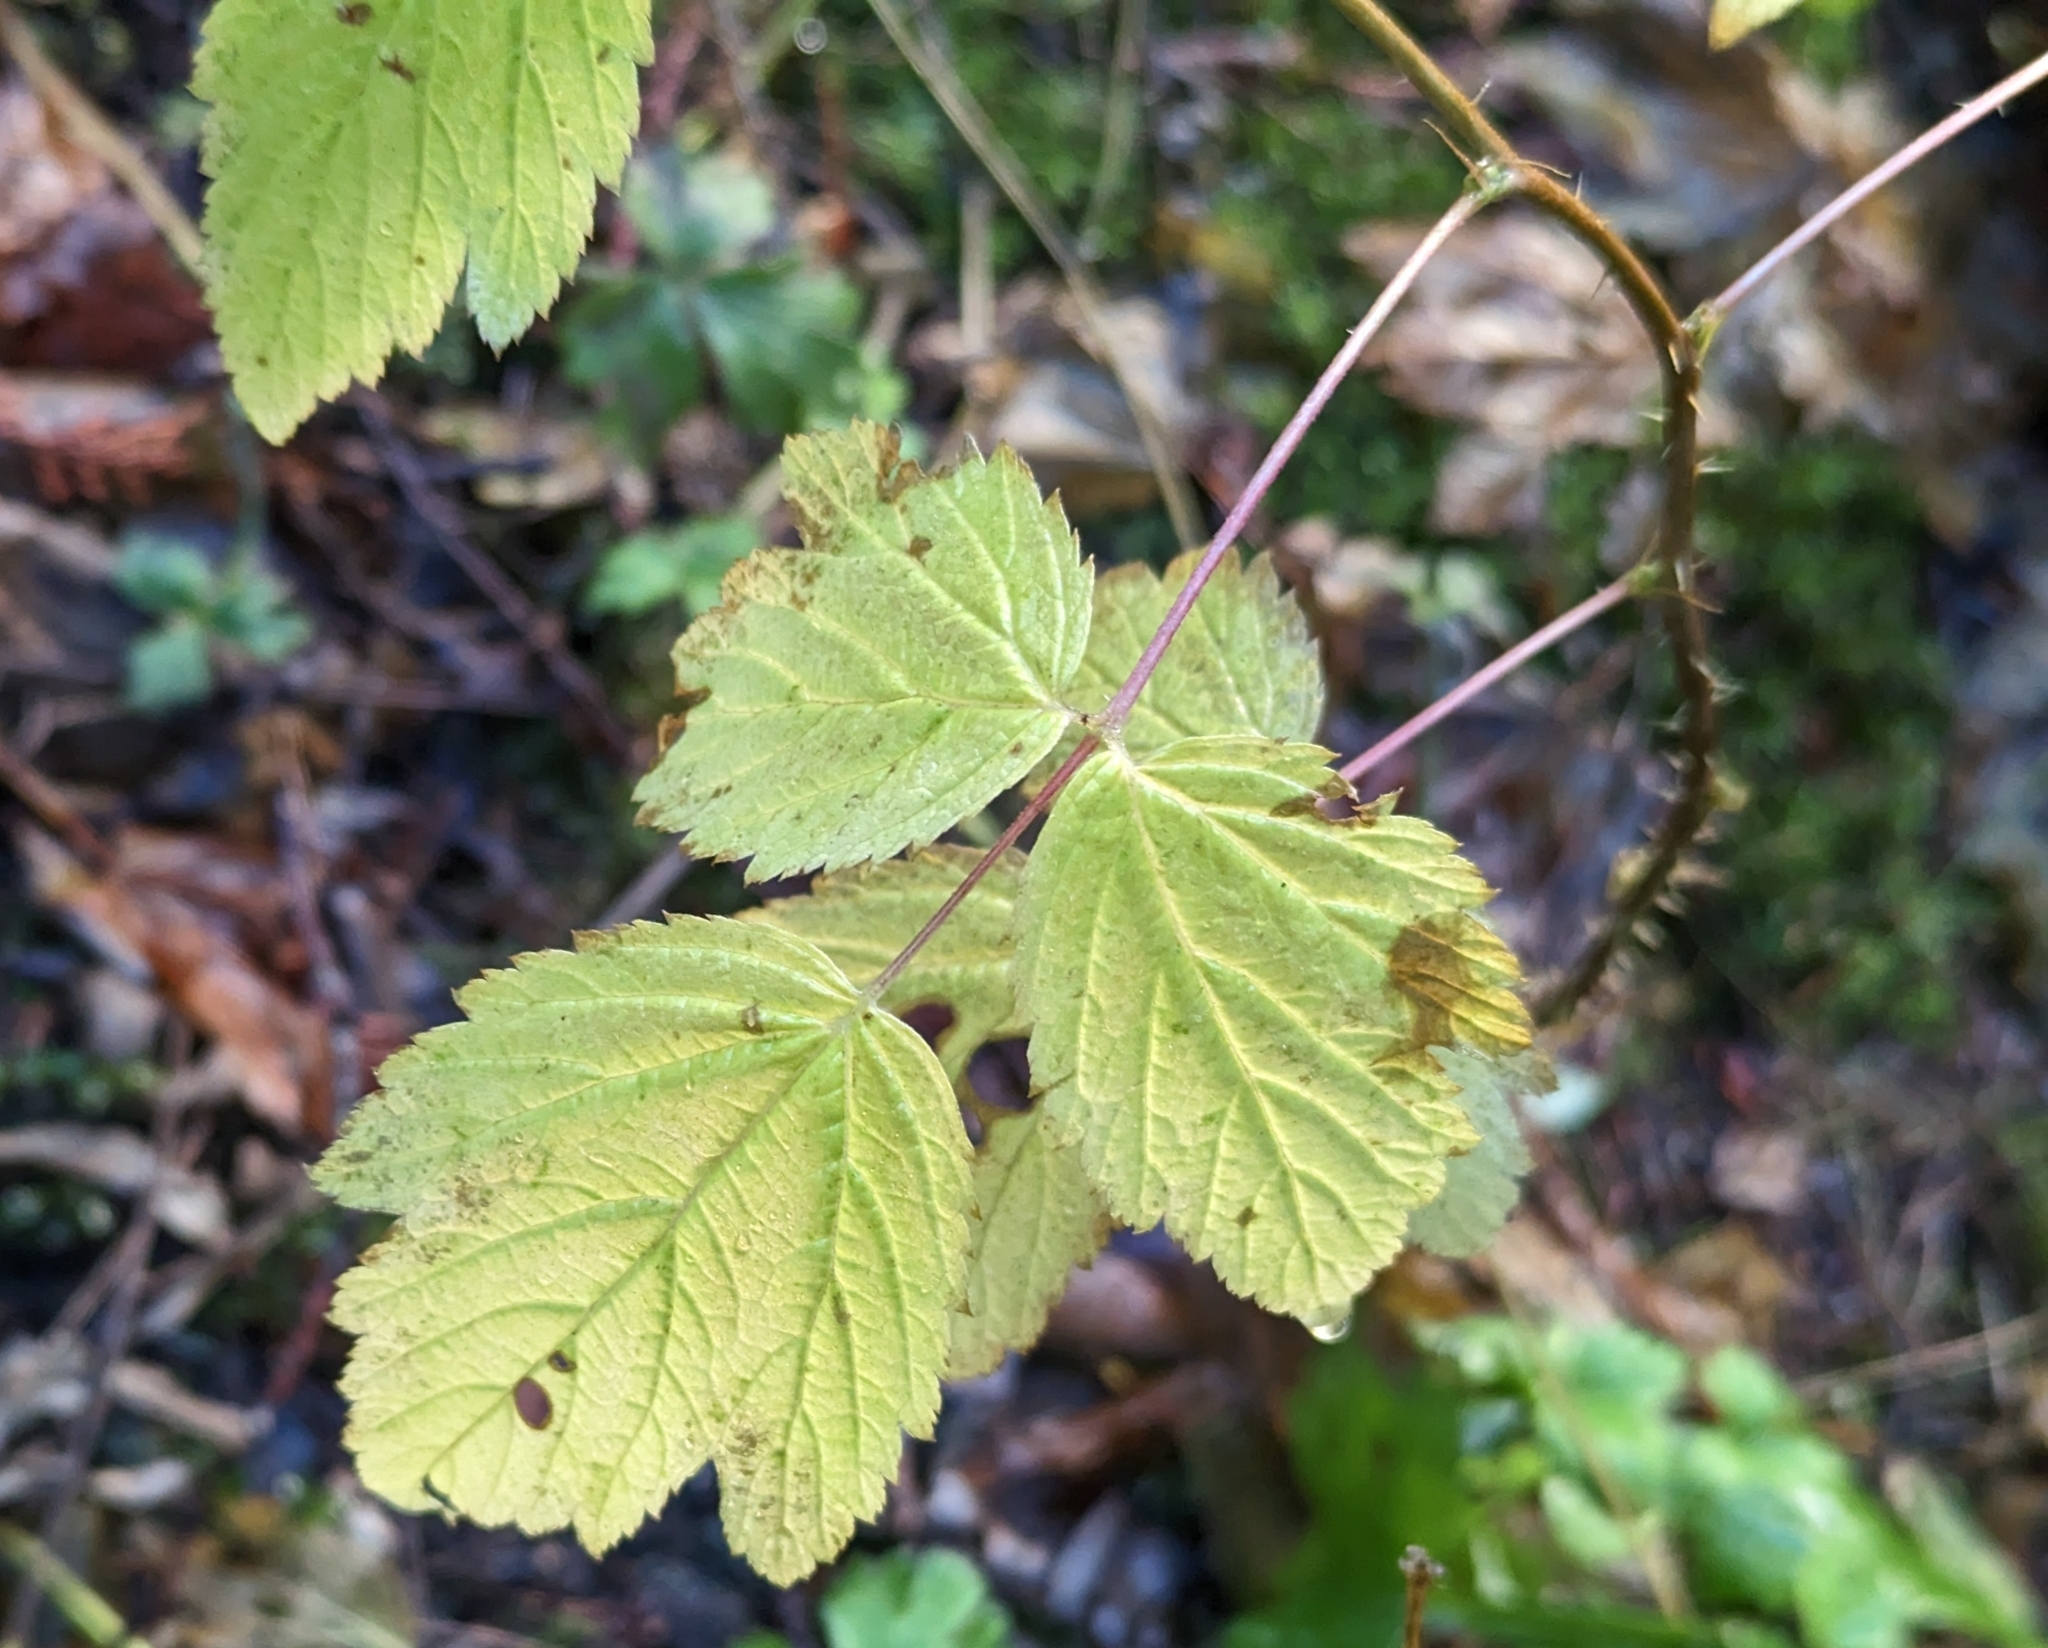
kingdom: Plantae
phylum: Tracheophyta
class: Magnoliopsida
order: Rosales
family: Rosaceae
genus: Rubus
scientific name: Rubus spectabilis
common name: Salmonberry
